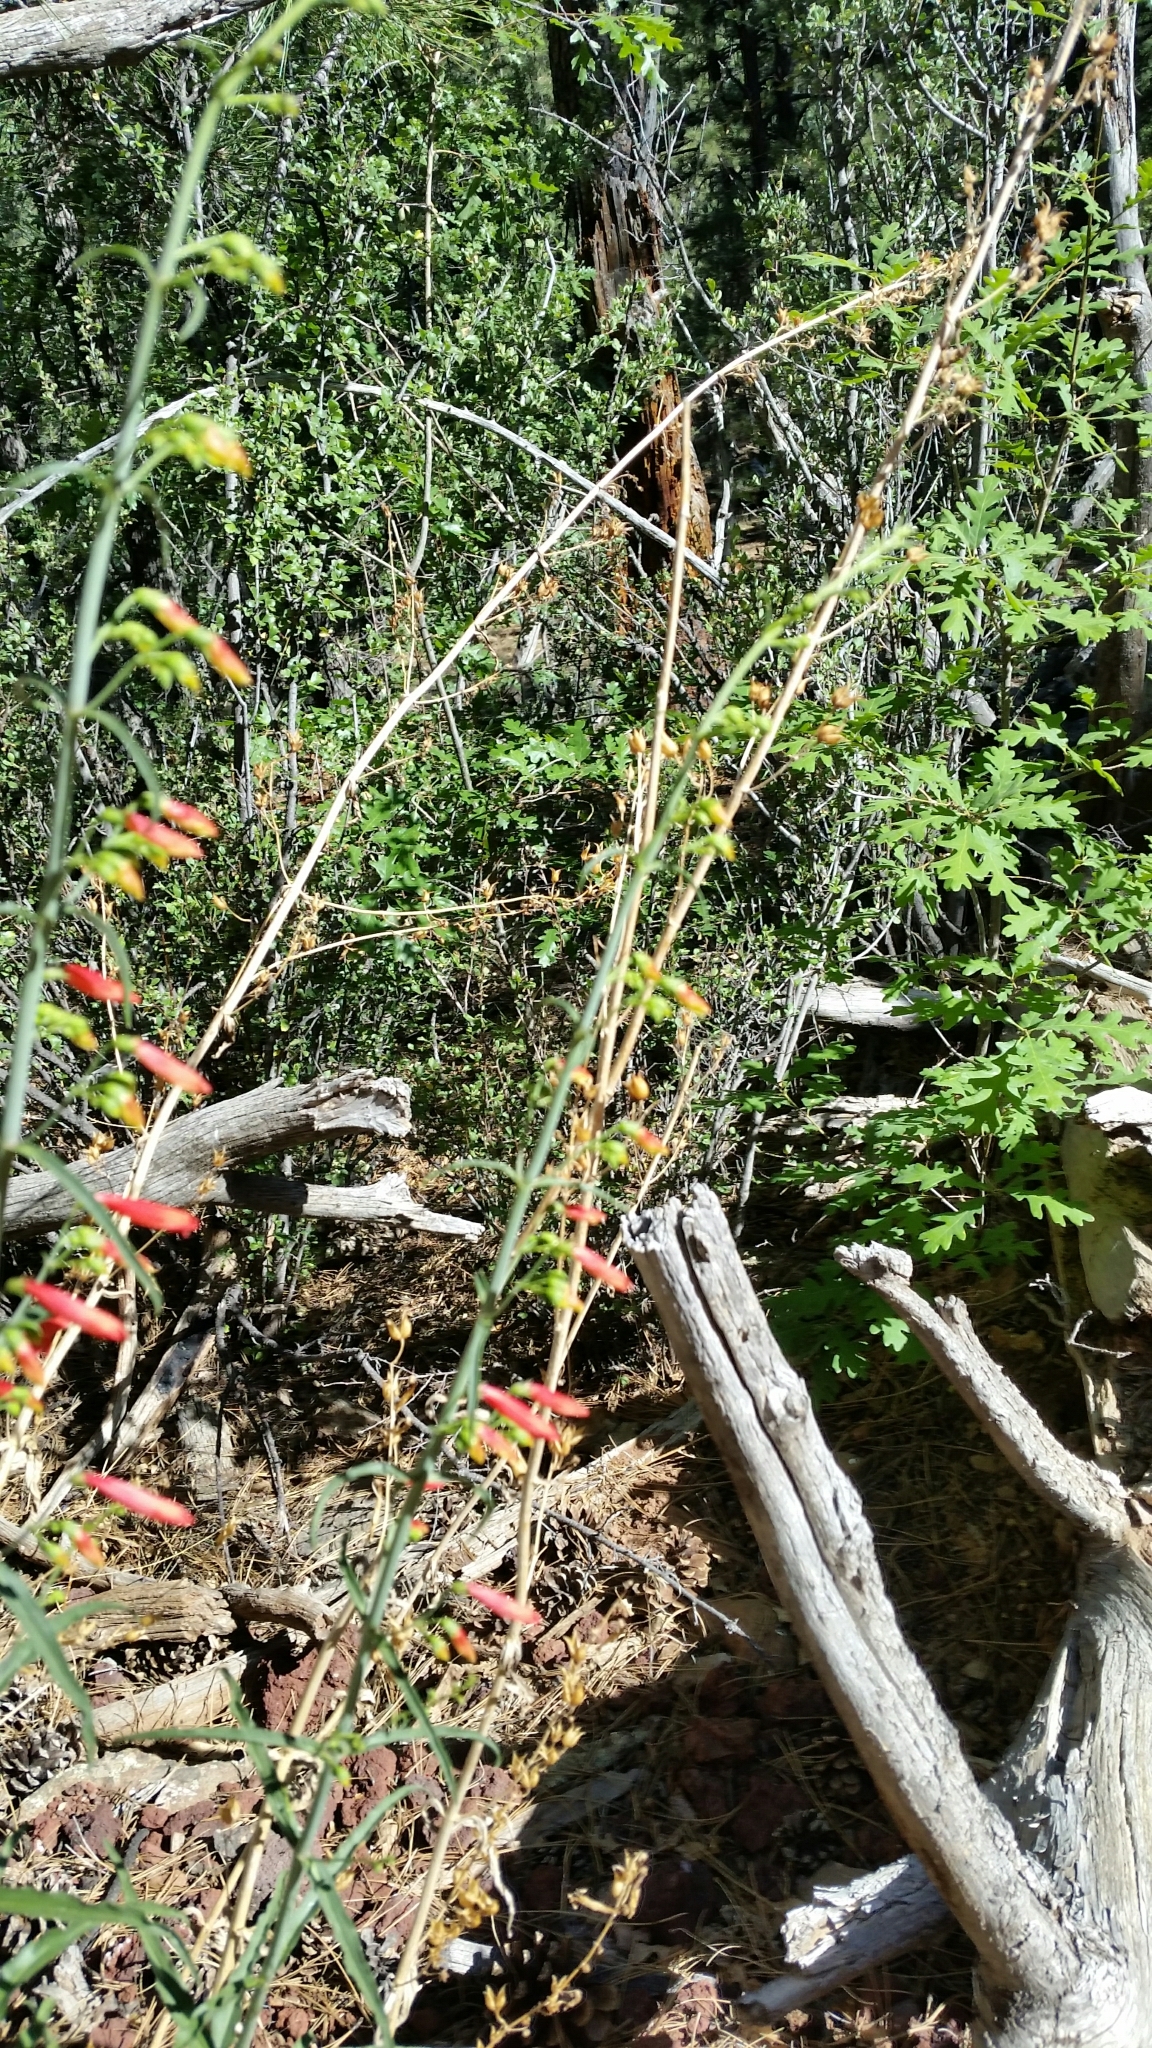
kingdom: Plantae
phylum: Tracheophyta
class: Magnoliopsida
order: Lamiales
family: Plantaginaceae
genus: Penstemon
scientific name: Penstemon barbatus
